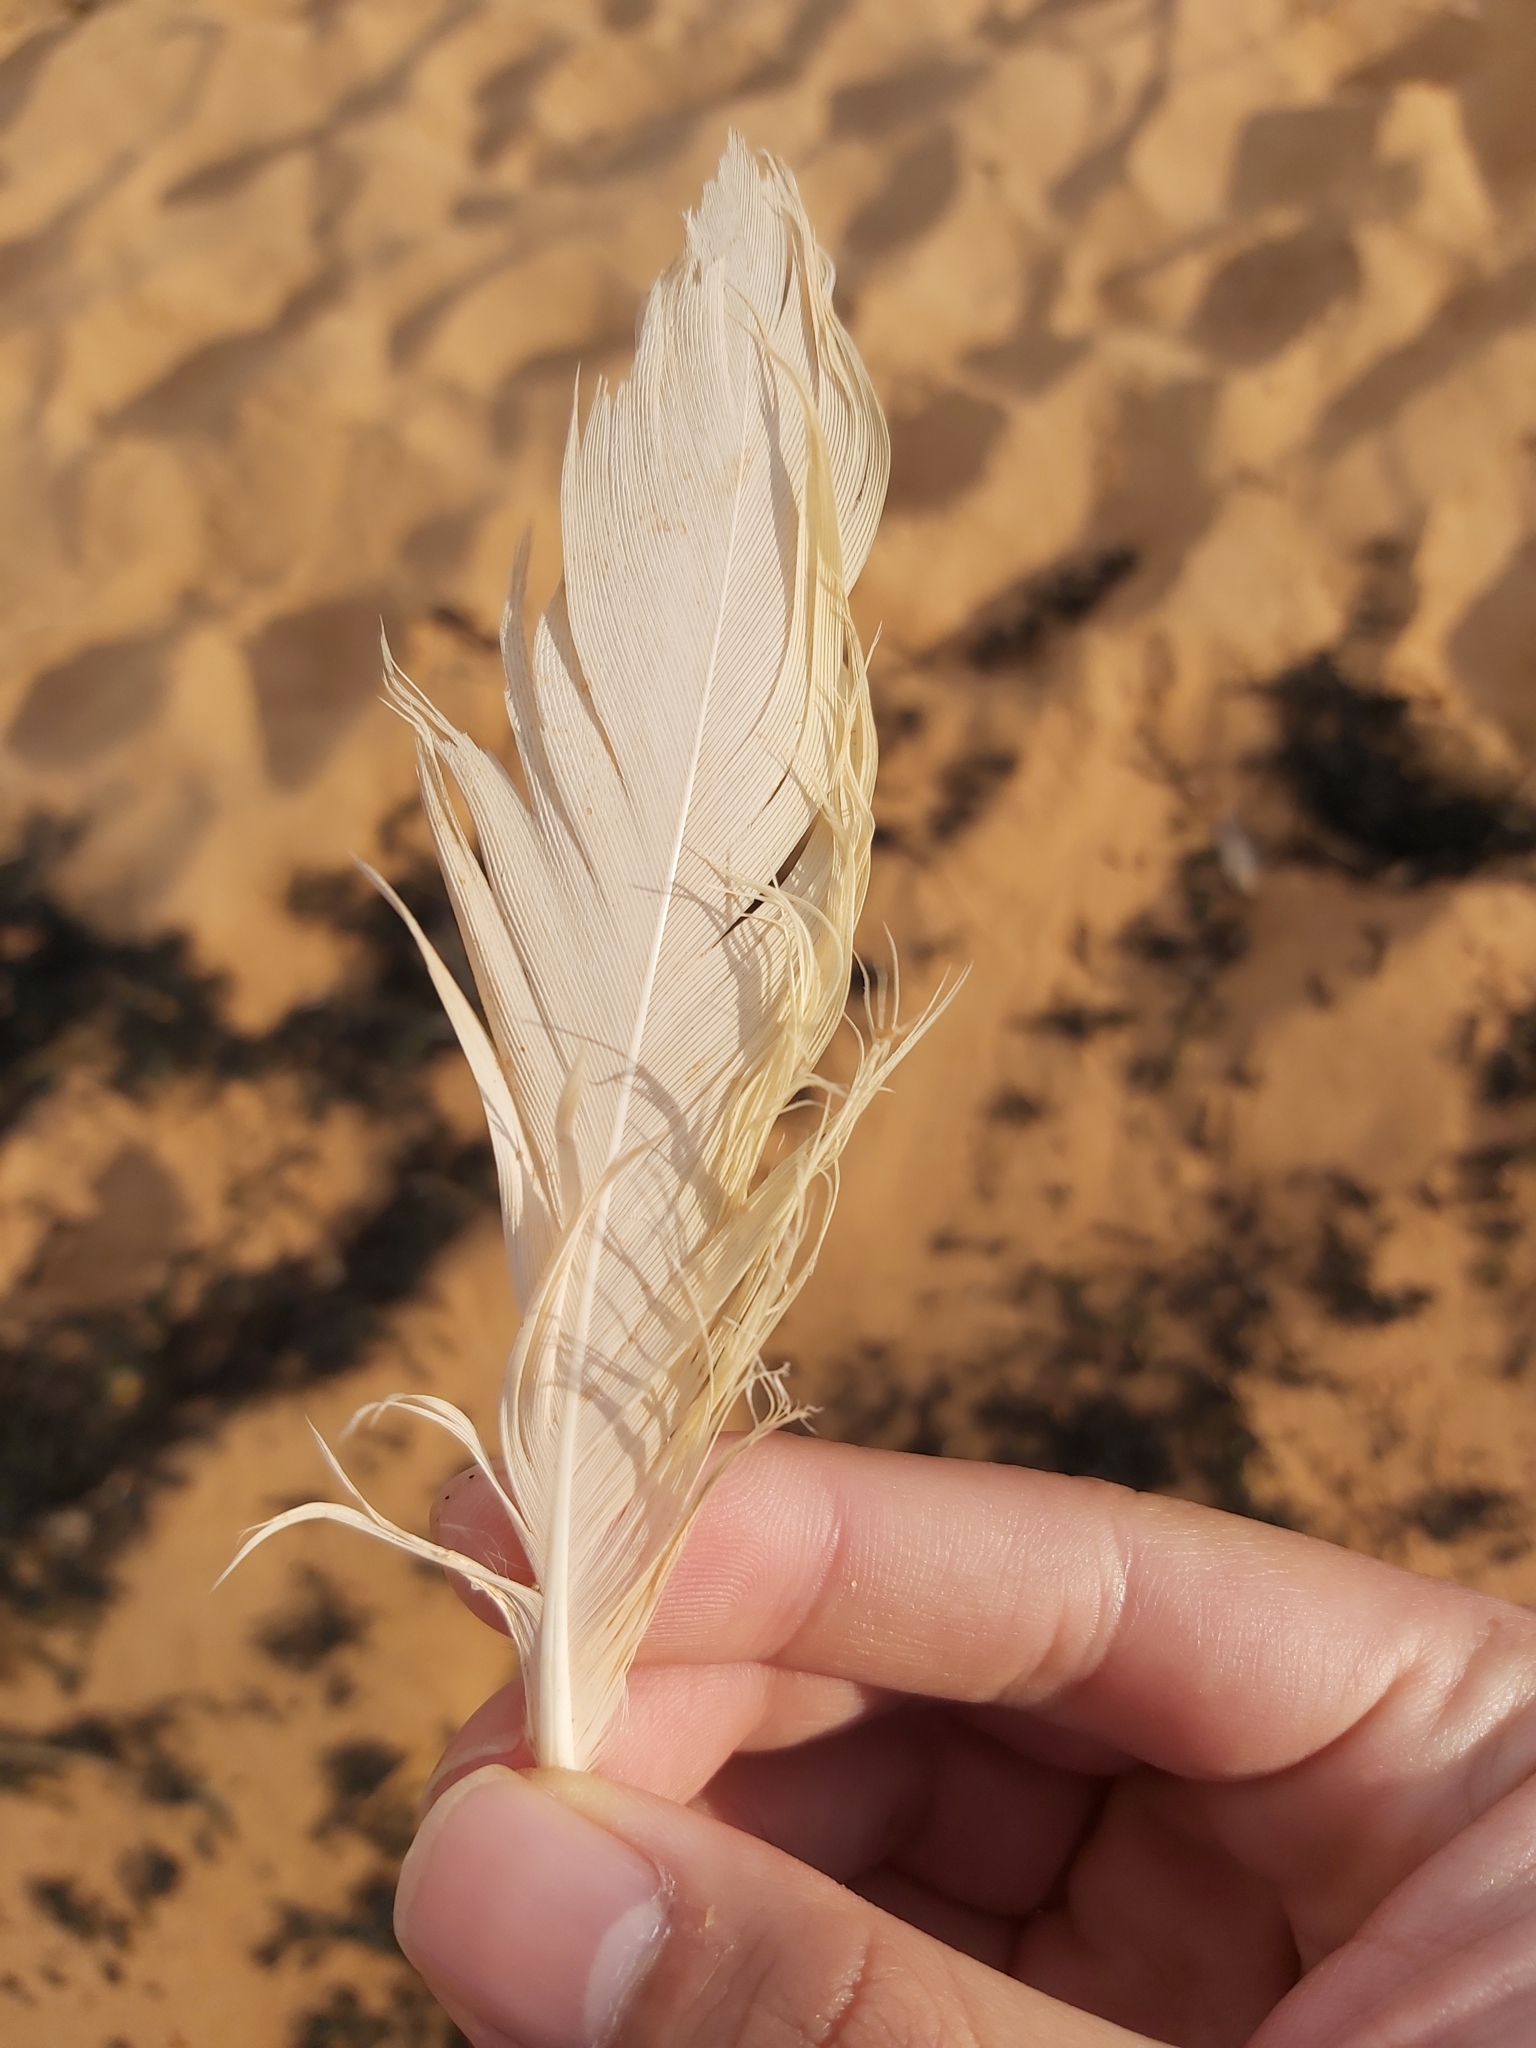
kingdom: Animalia
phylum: Chordata
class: Aves
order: Psittaciformes
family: Psittacidae
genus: Cacatua
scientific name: Cacatua galerita
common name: Sulphur-crested cockatoo
